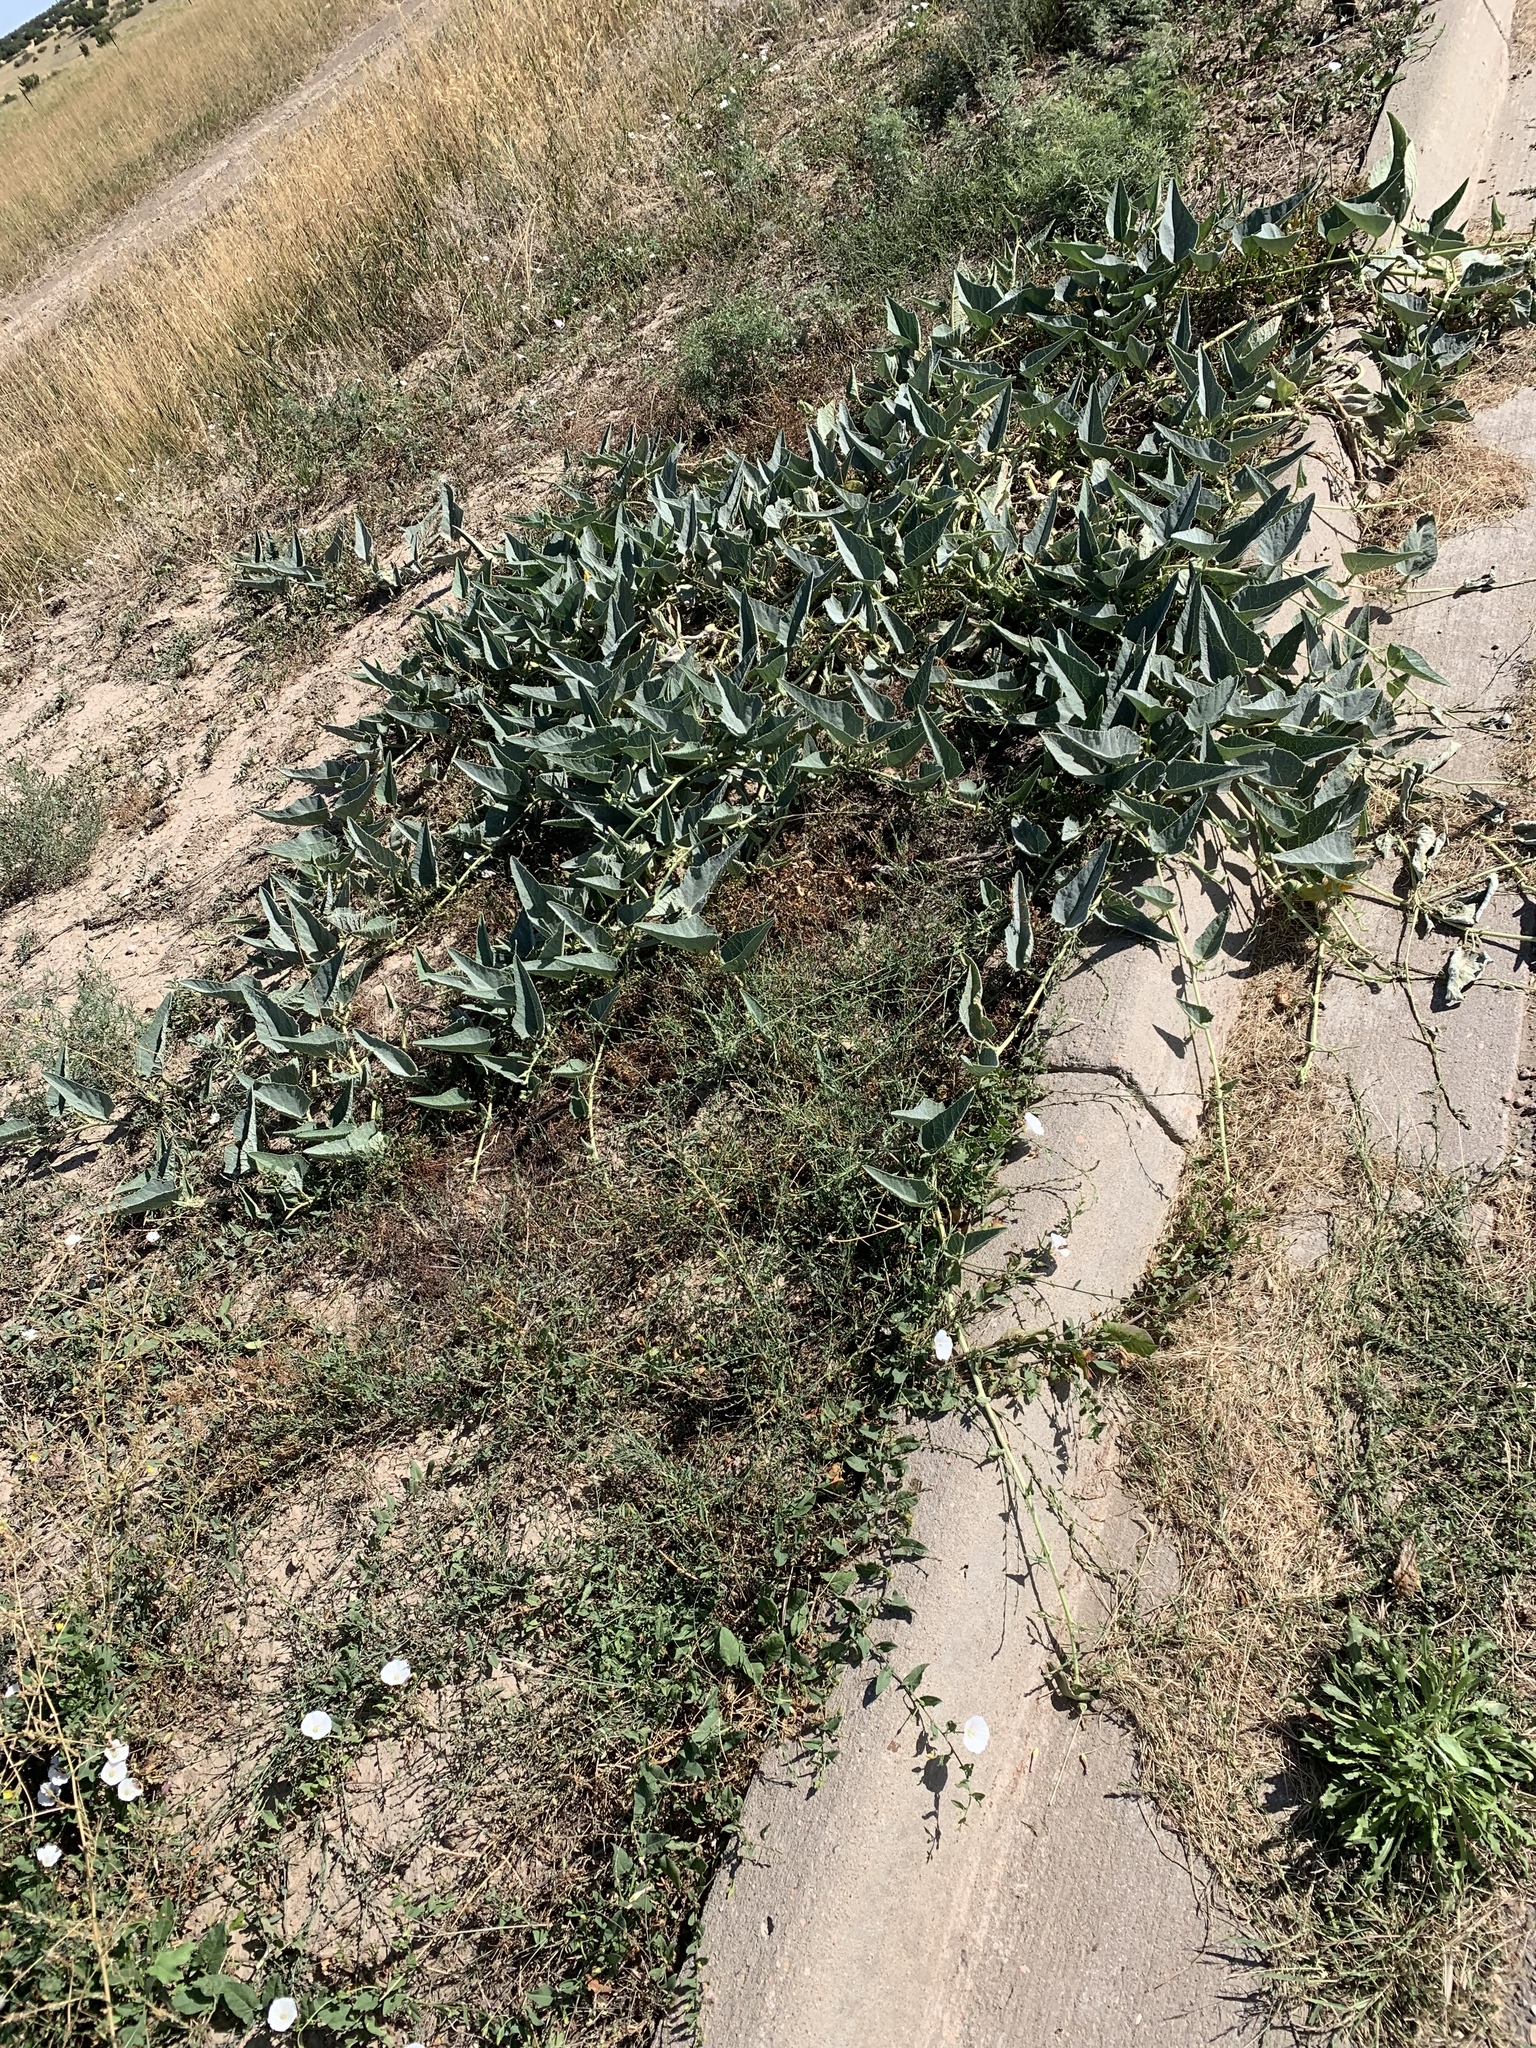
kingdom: Plantae
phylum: Tracheophyta
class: Magnoliopsida
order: Cucurbitales
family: Cucurbitaceae
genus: Cucurbita
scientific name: Cucurbita foetidissima
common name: Buffalo gourd
